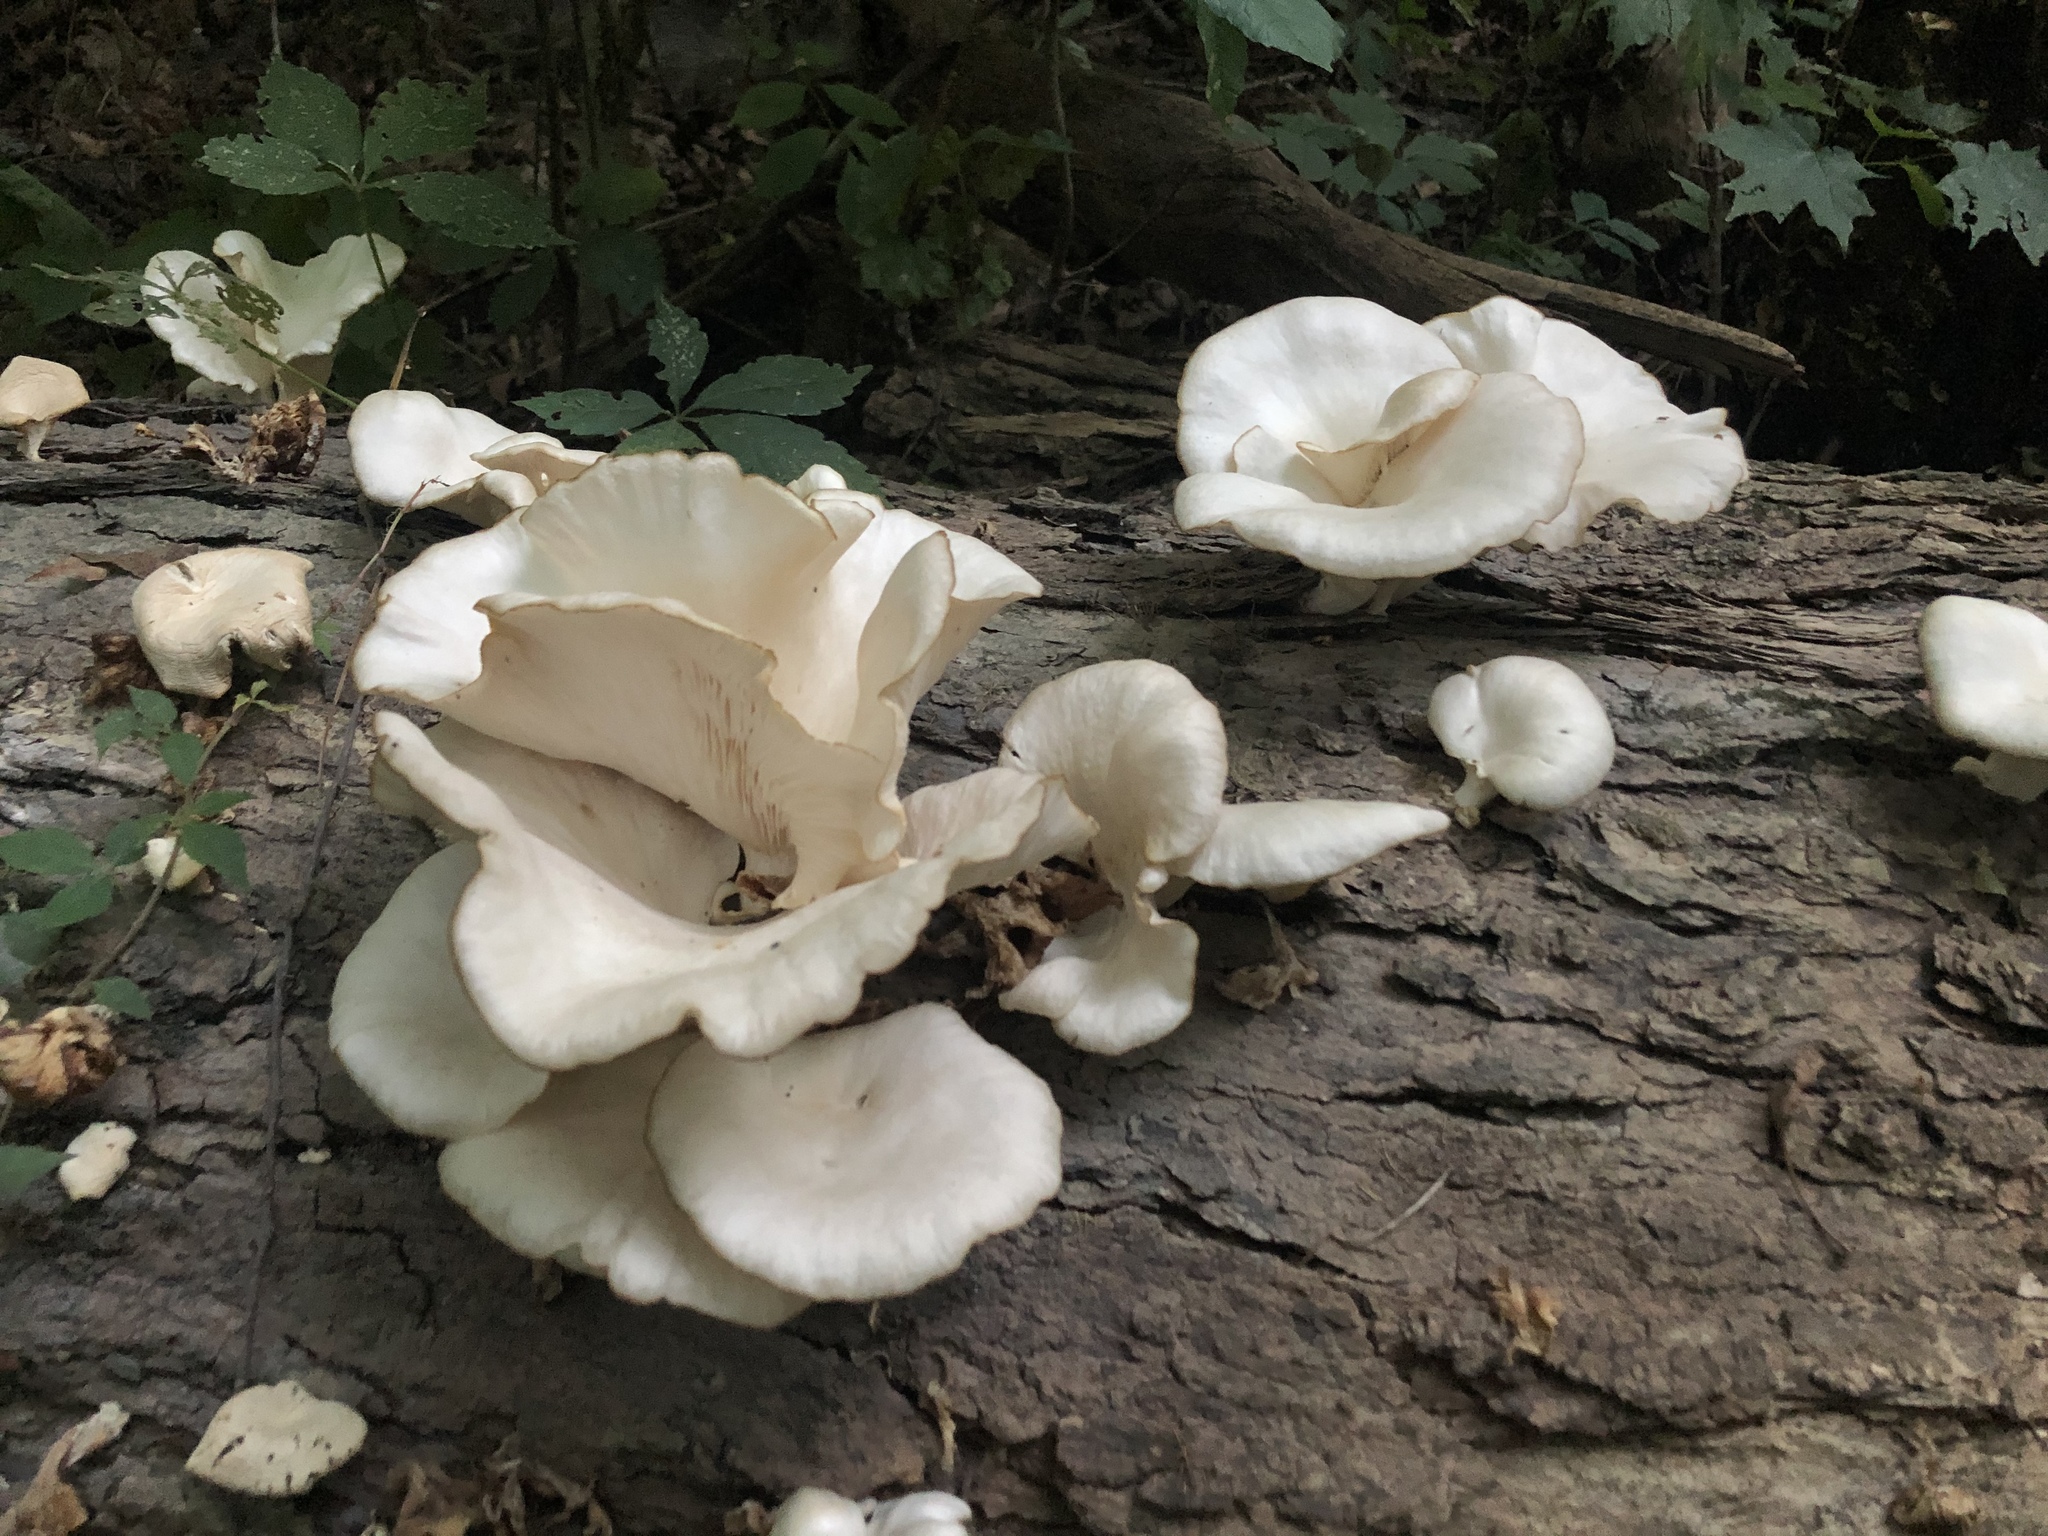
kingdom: Fungi
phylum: Basidiomycota
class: Agaricomycetes
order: Agaricales
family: Pleurotaceae
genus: Pleurotus
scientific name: Pleurotus pulmonarius
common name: Pale oyster
